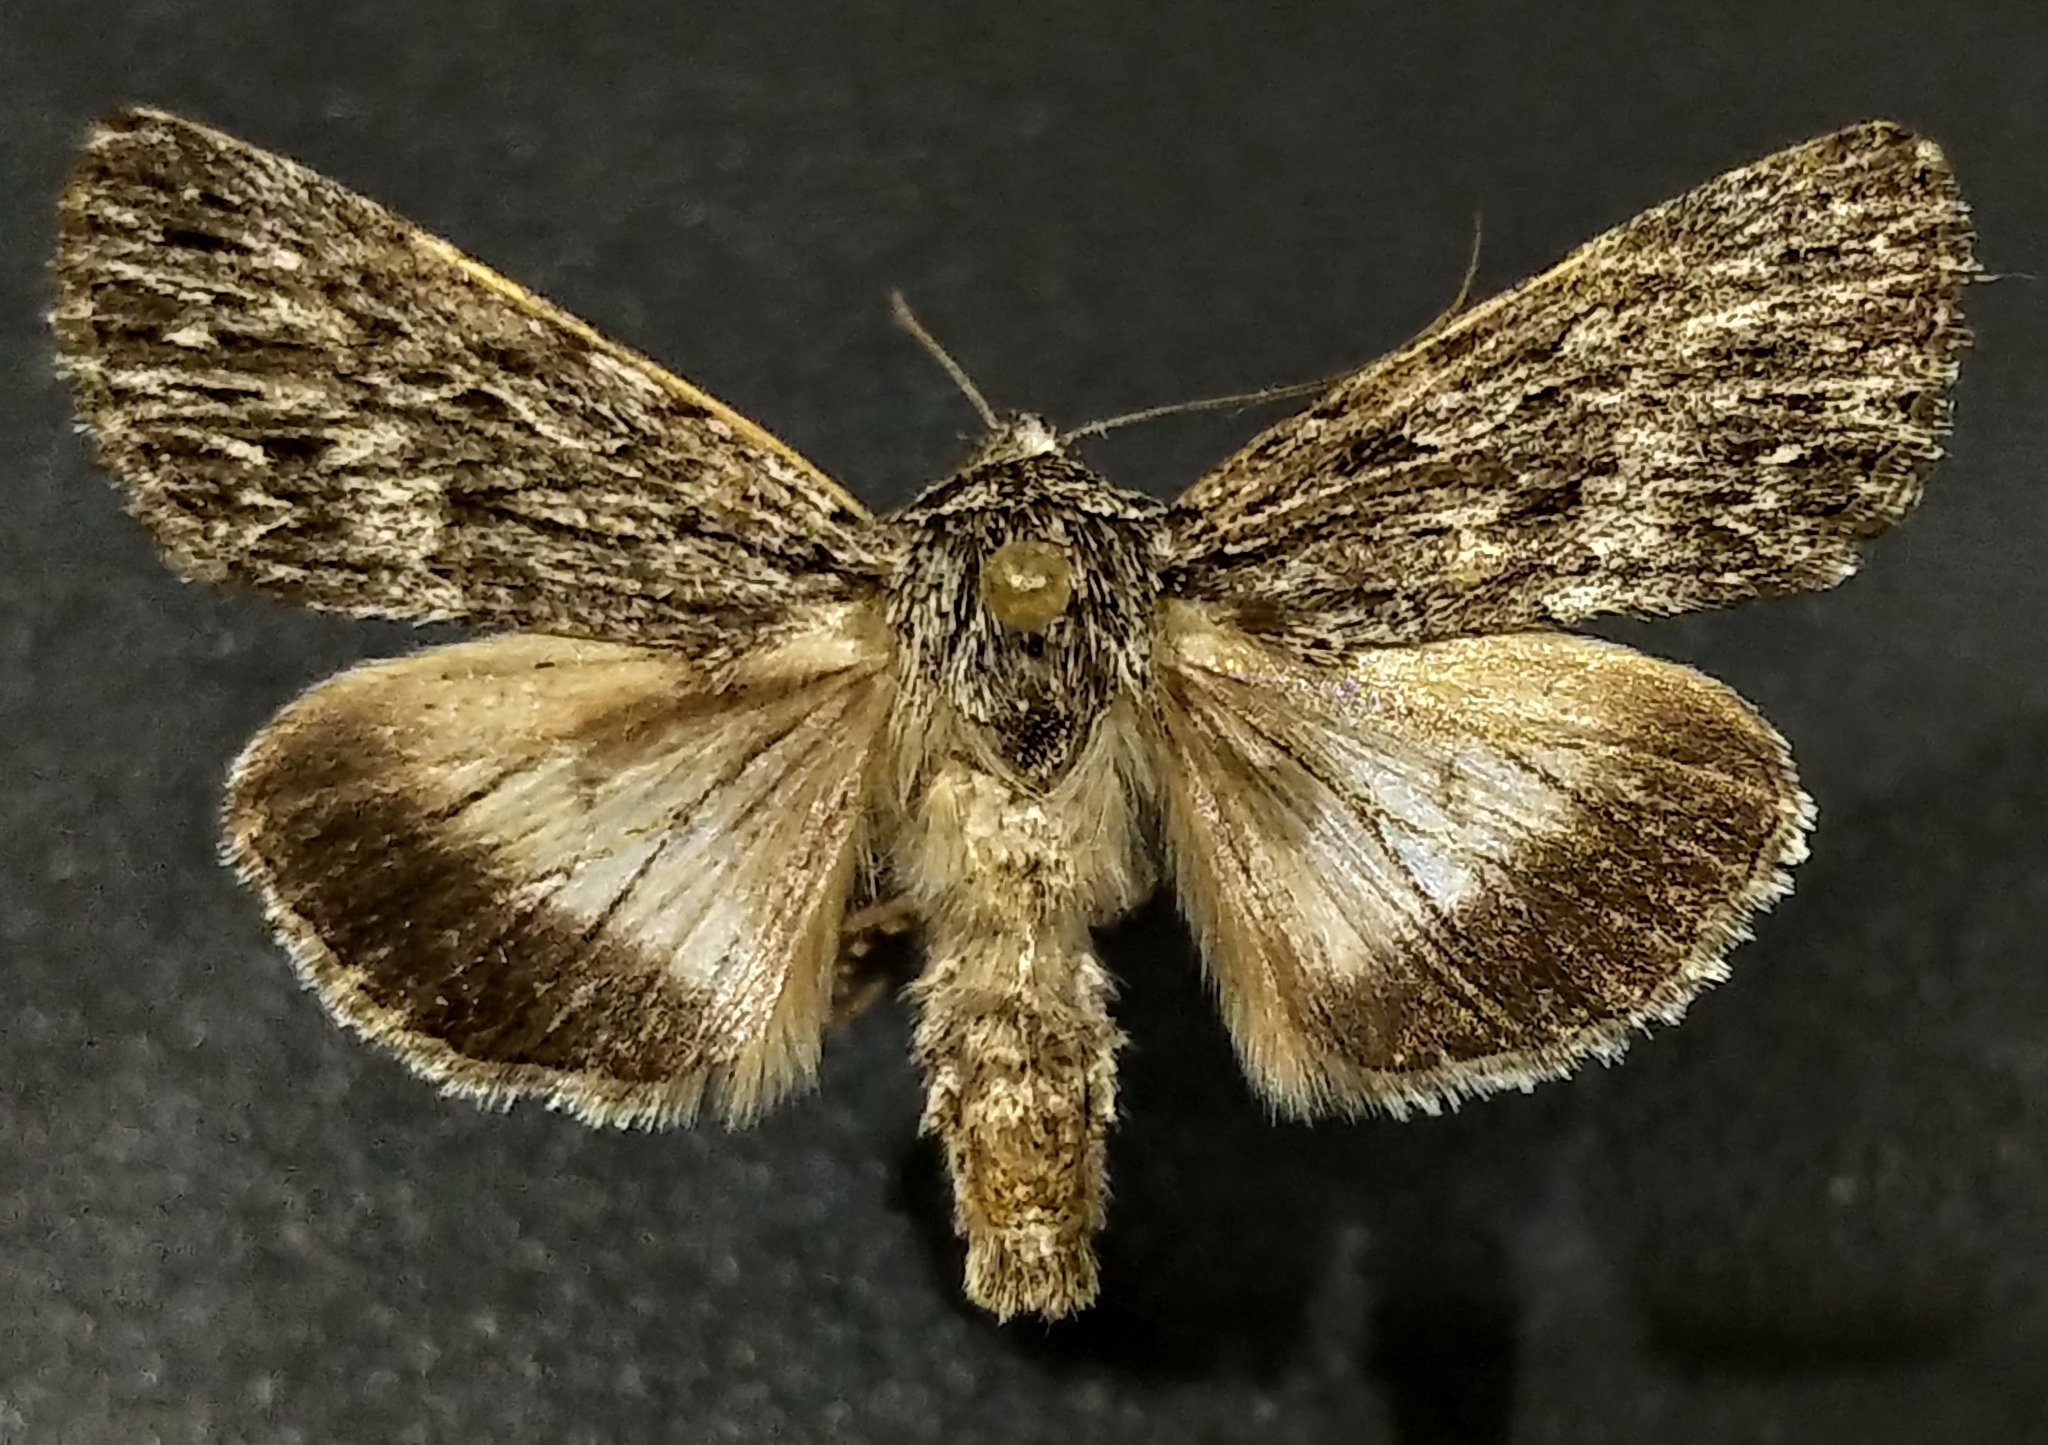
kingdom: Animalia
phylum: Arthropoda
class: Insecta
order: Lepidoptera
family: Noctuidae
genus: Sympistis
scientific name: Sympistis poliochroa
